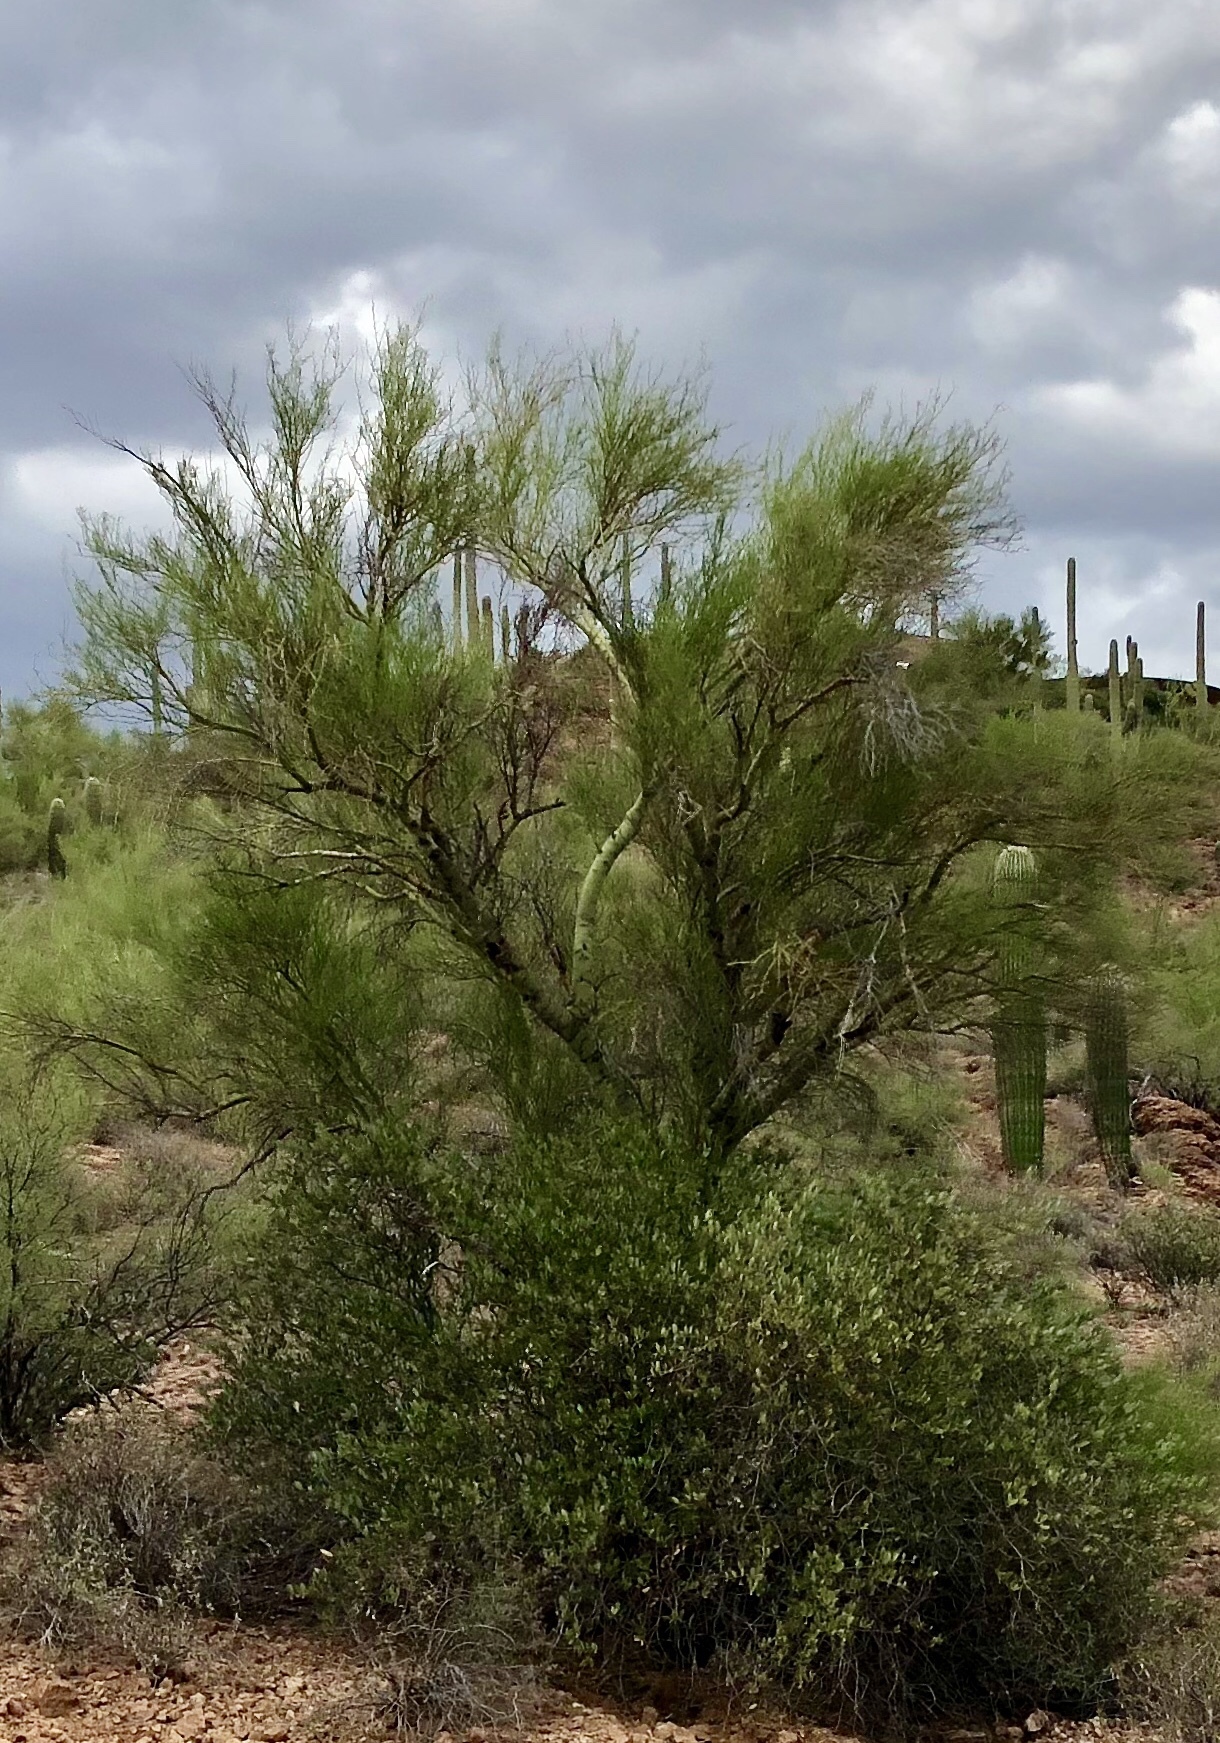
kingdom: Plantae
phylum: Tracheophyta
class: Magnoliopsida
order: Fabales
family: Fabaceae
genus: Parkinsonia
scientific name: Parkinsonia microphylla
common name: Yellow paloverde
